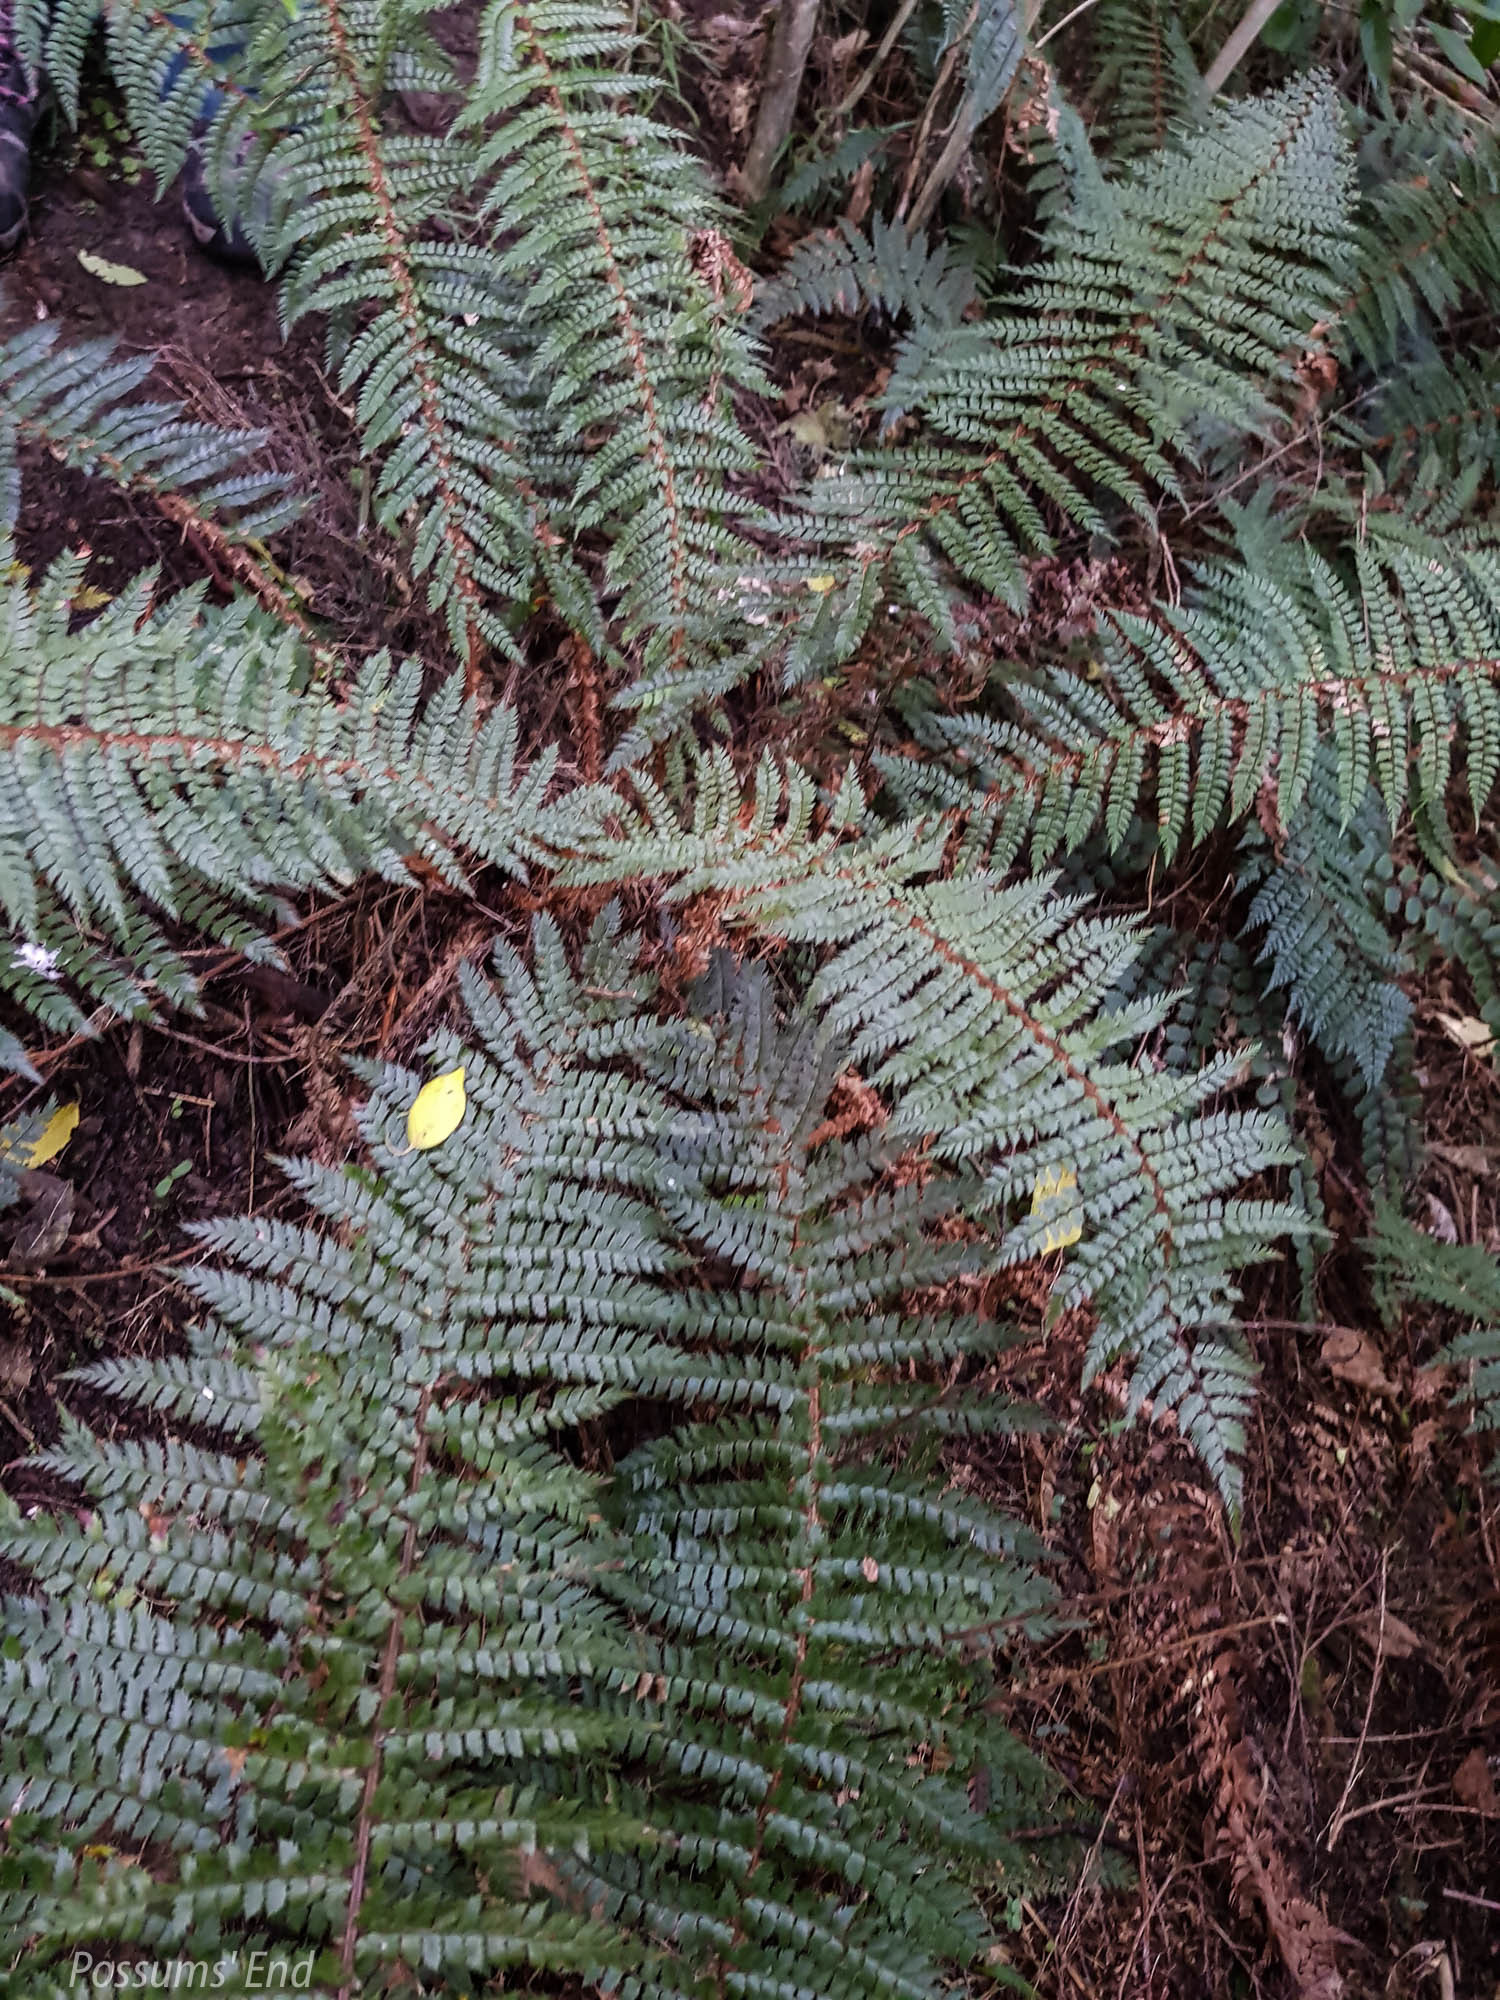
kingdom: Plantae
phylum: Tracheophyta
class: Polypodiopsida
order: Polypodiales
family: Dryopteridaceae
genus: Polystichum
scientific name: Polystichum vestitum
